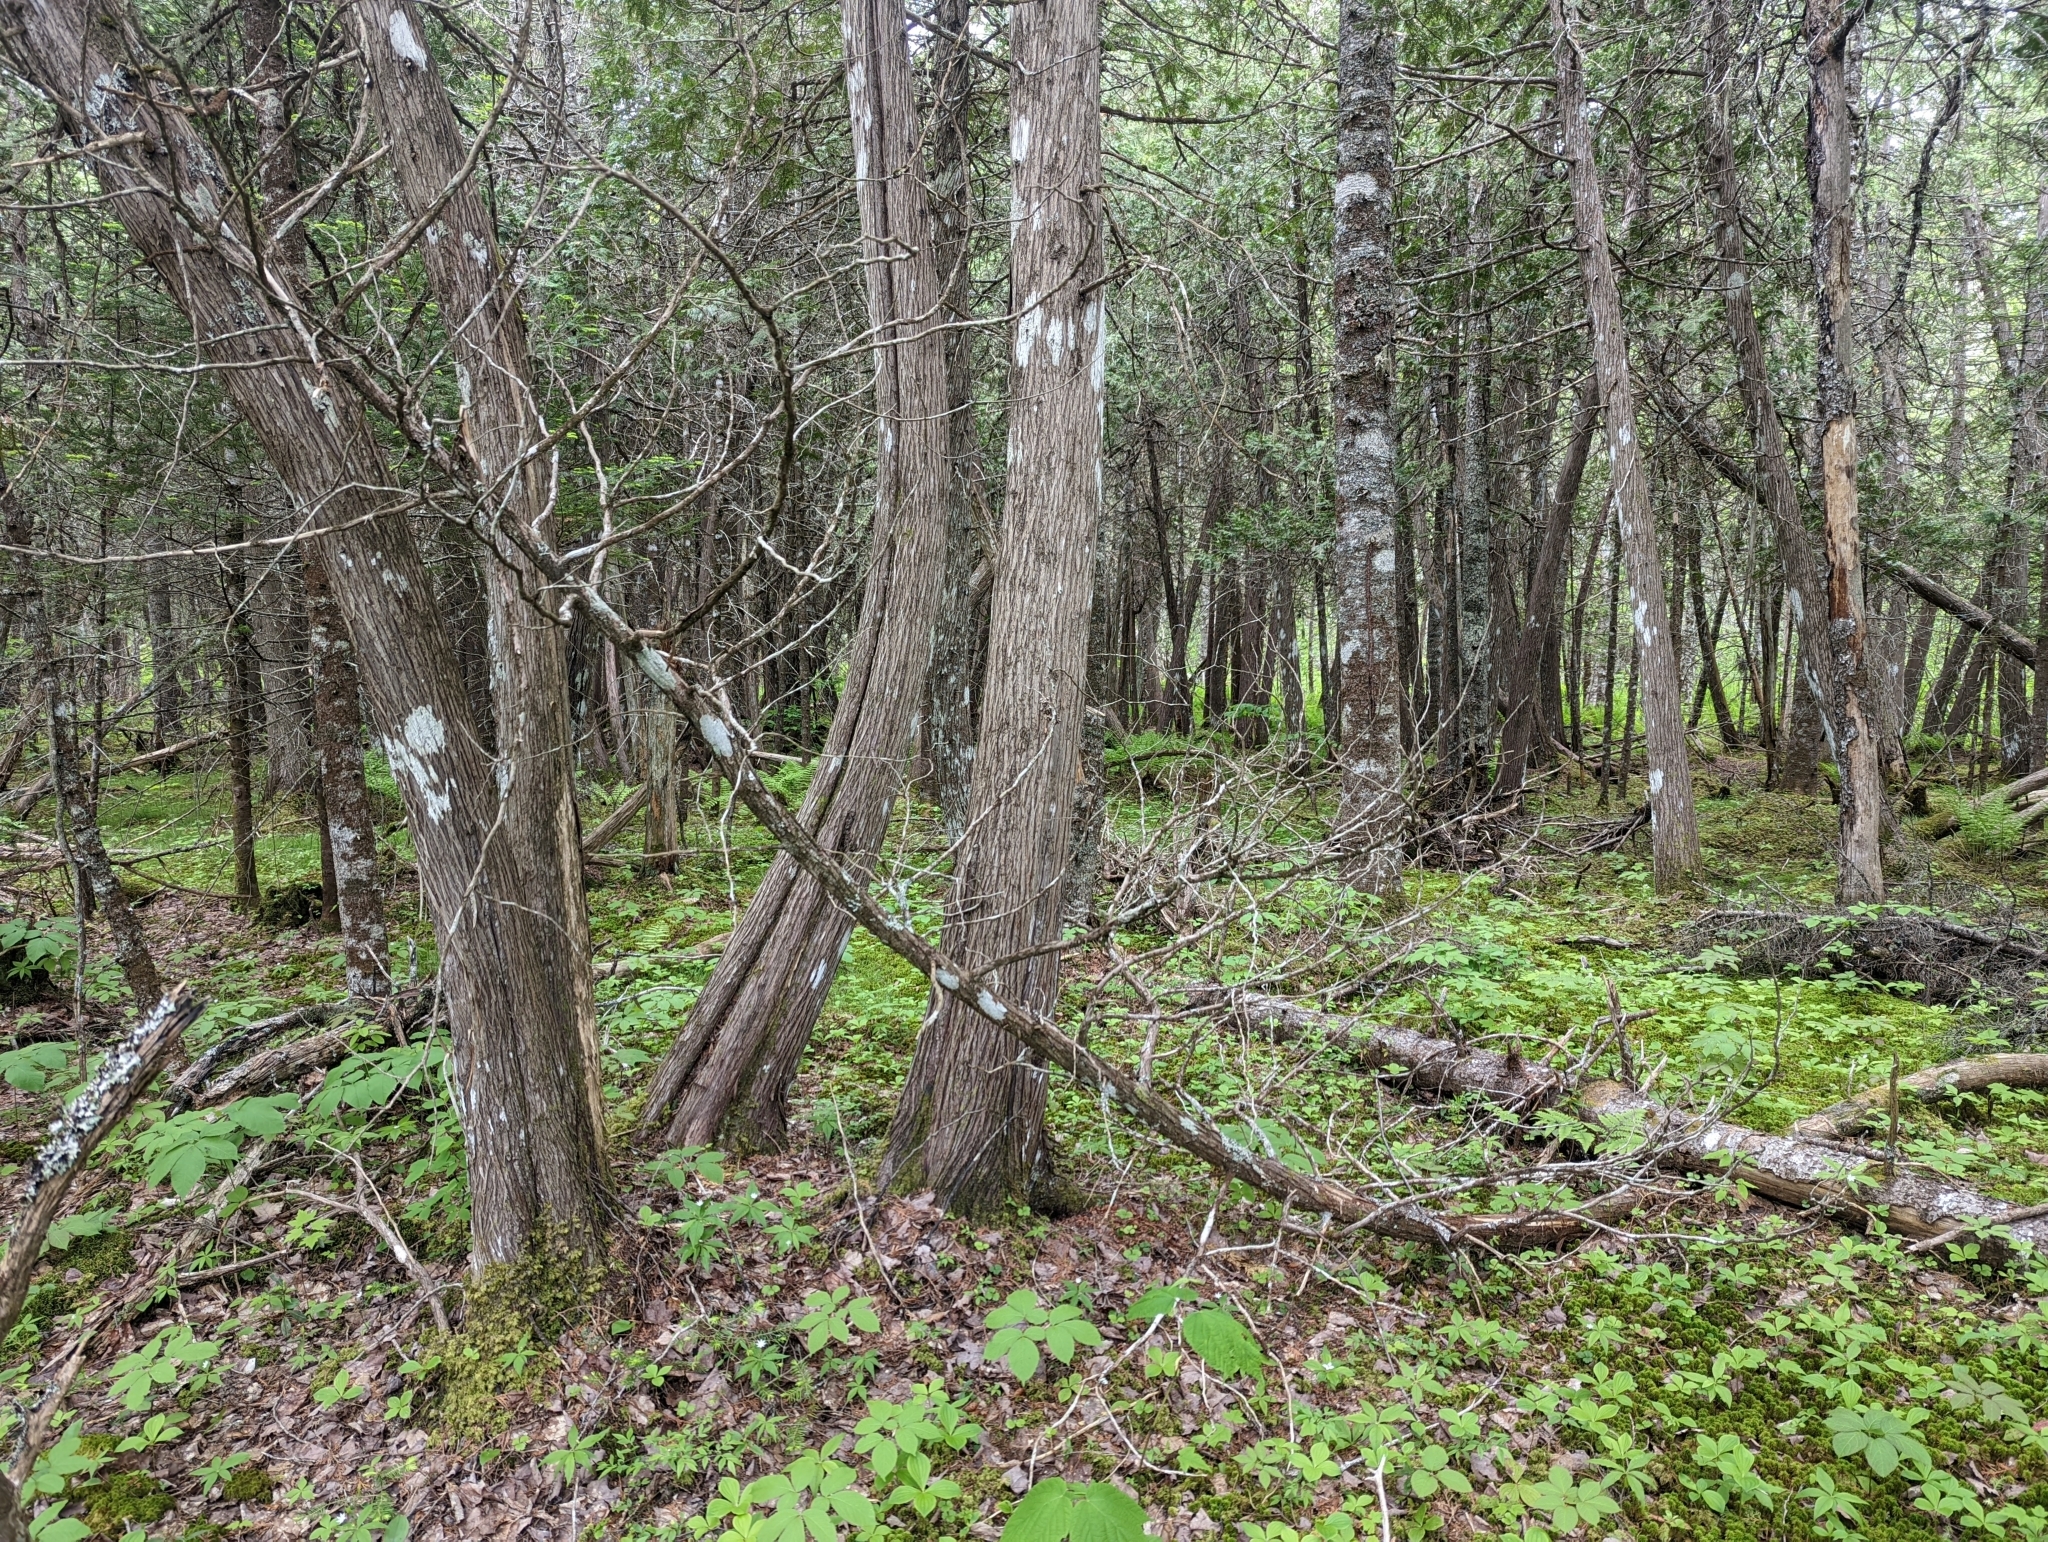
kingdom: Plantae
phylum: Tracheophyta
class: Pinopsida
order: Pinales
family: Cupressaceae
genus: Thuja
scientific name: Thuja occidentalis
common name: Northern white-cedar
